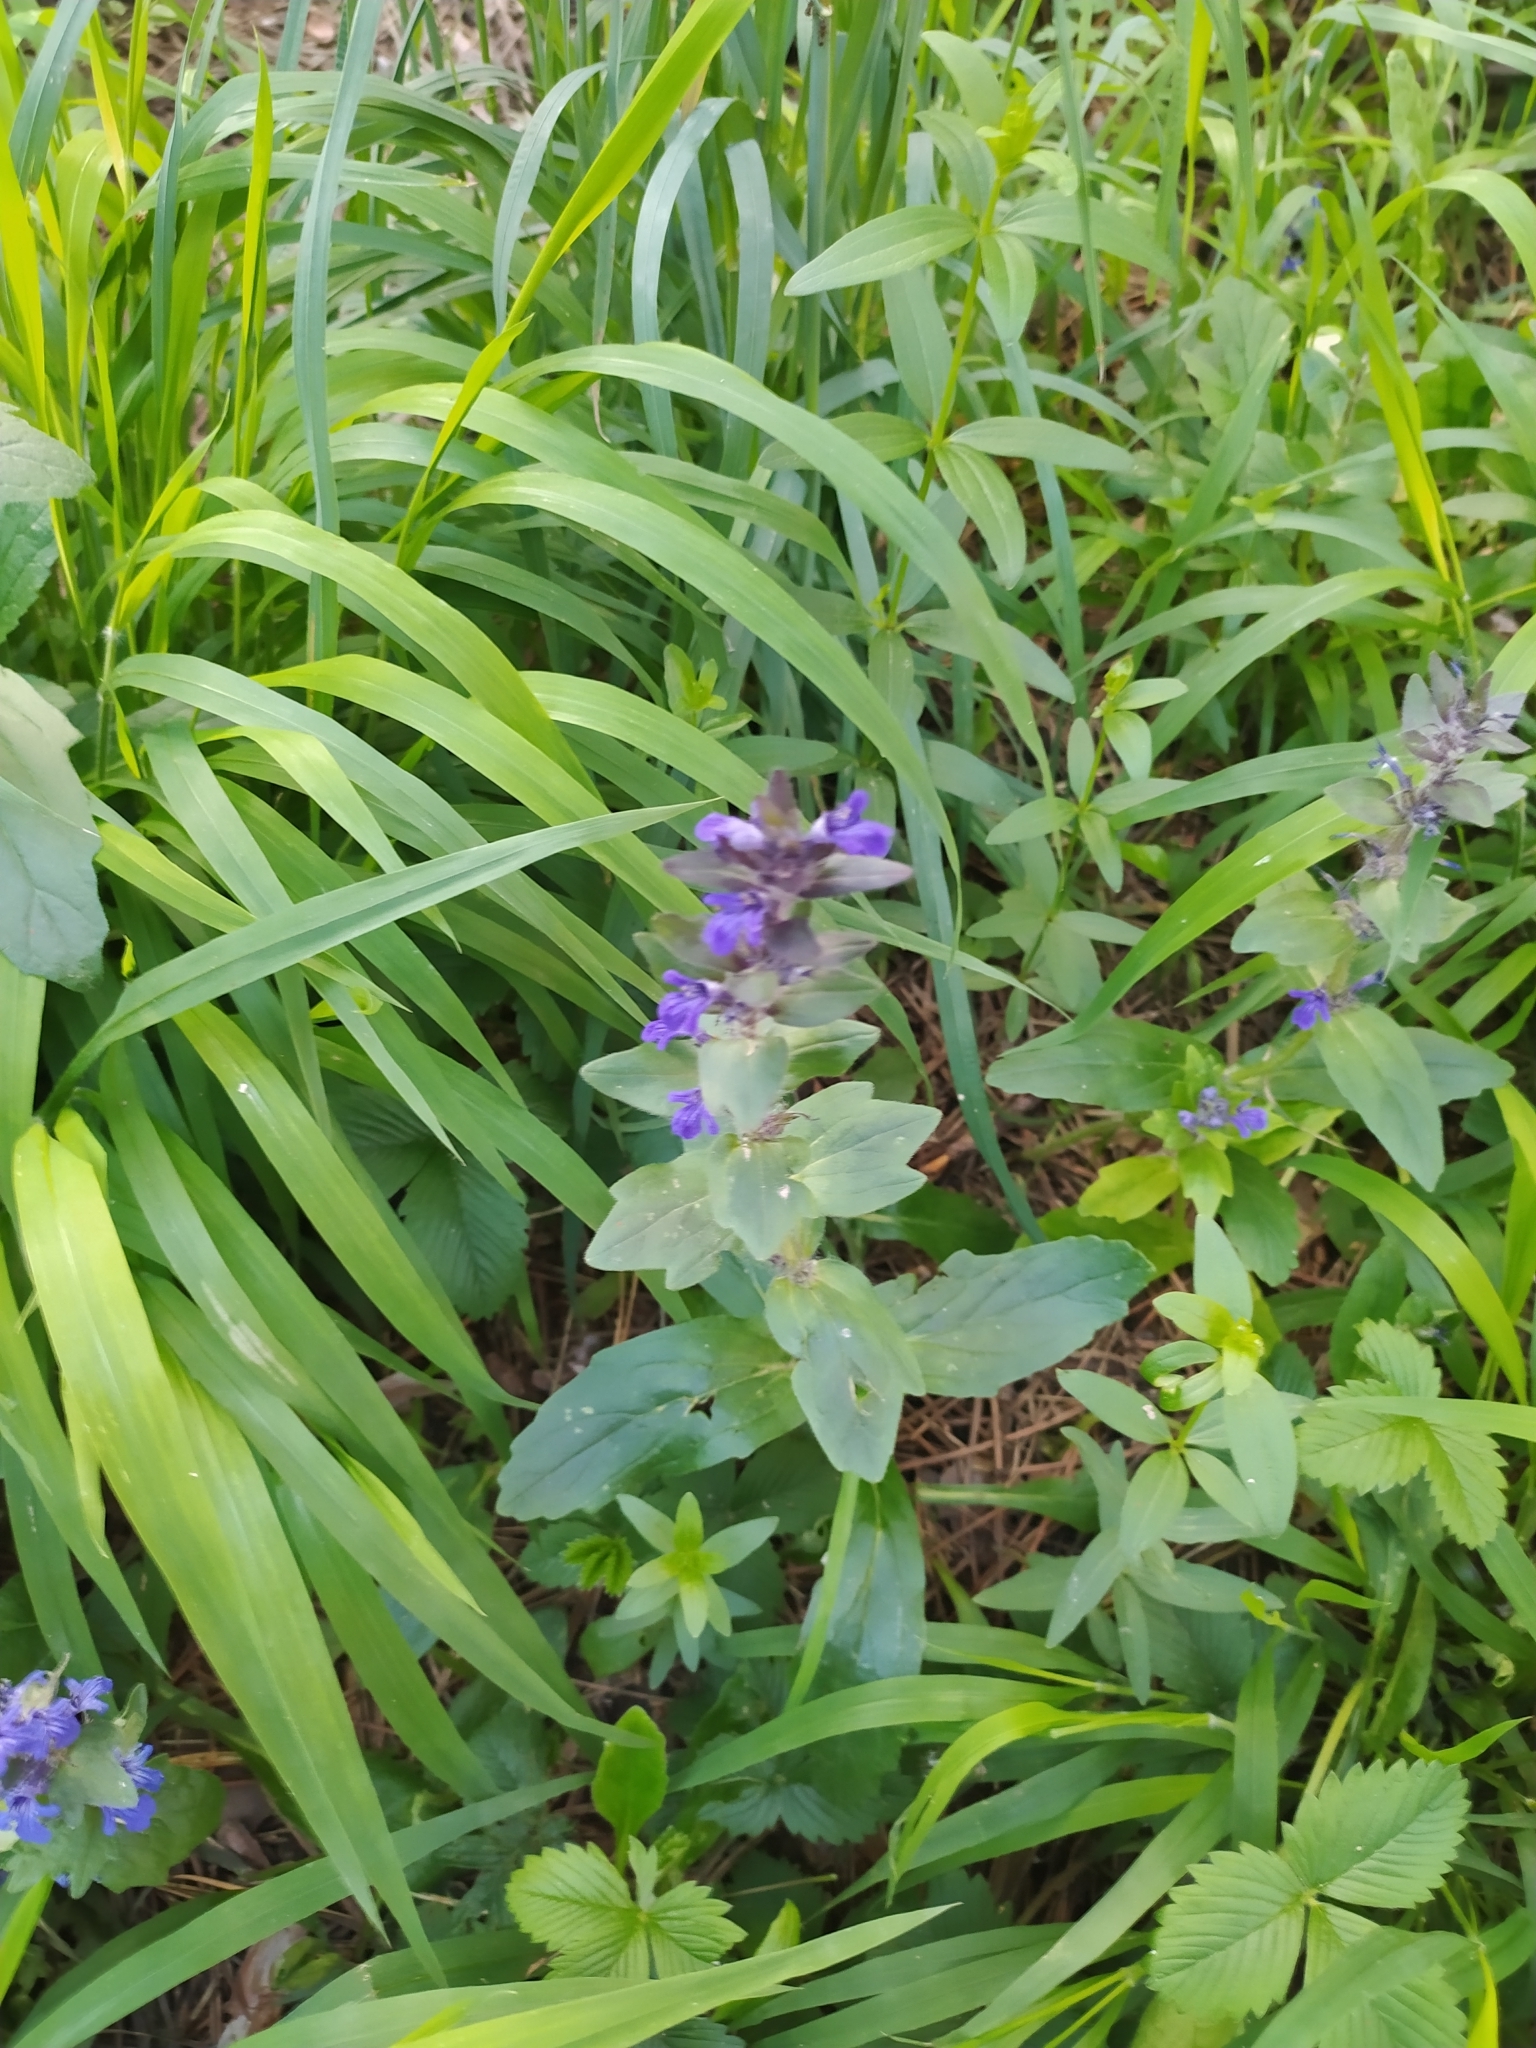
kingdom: Plantae
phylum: Tracheophyta
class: Magnoliopsida
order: Lamiales
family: Lamiaceae
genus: Ajuga
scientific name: Ajuga genevensis
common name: Blue bugle
